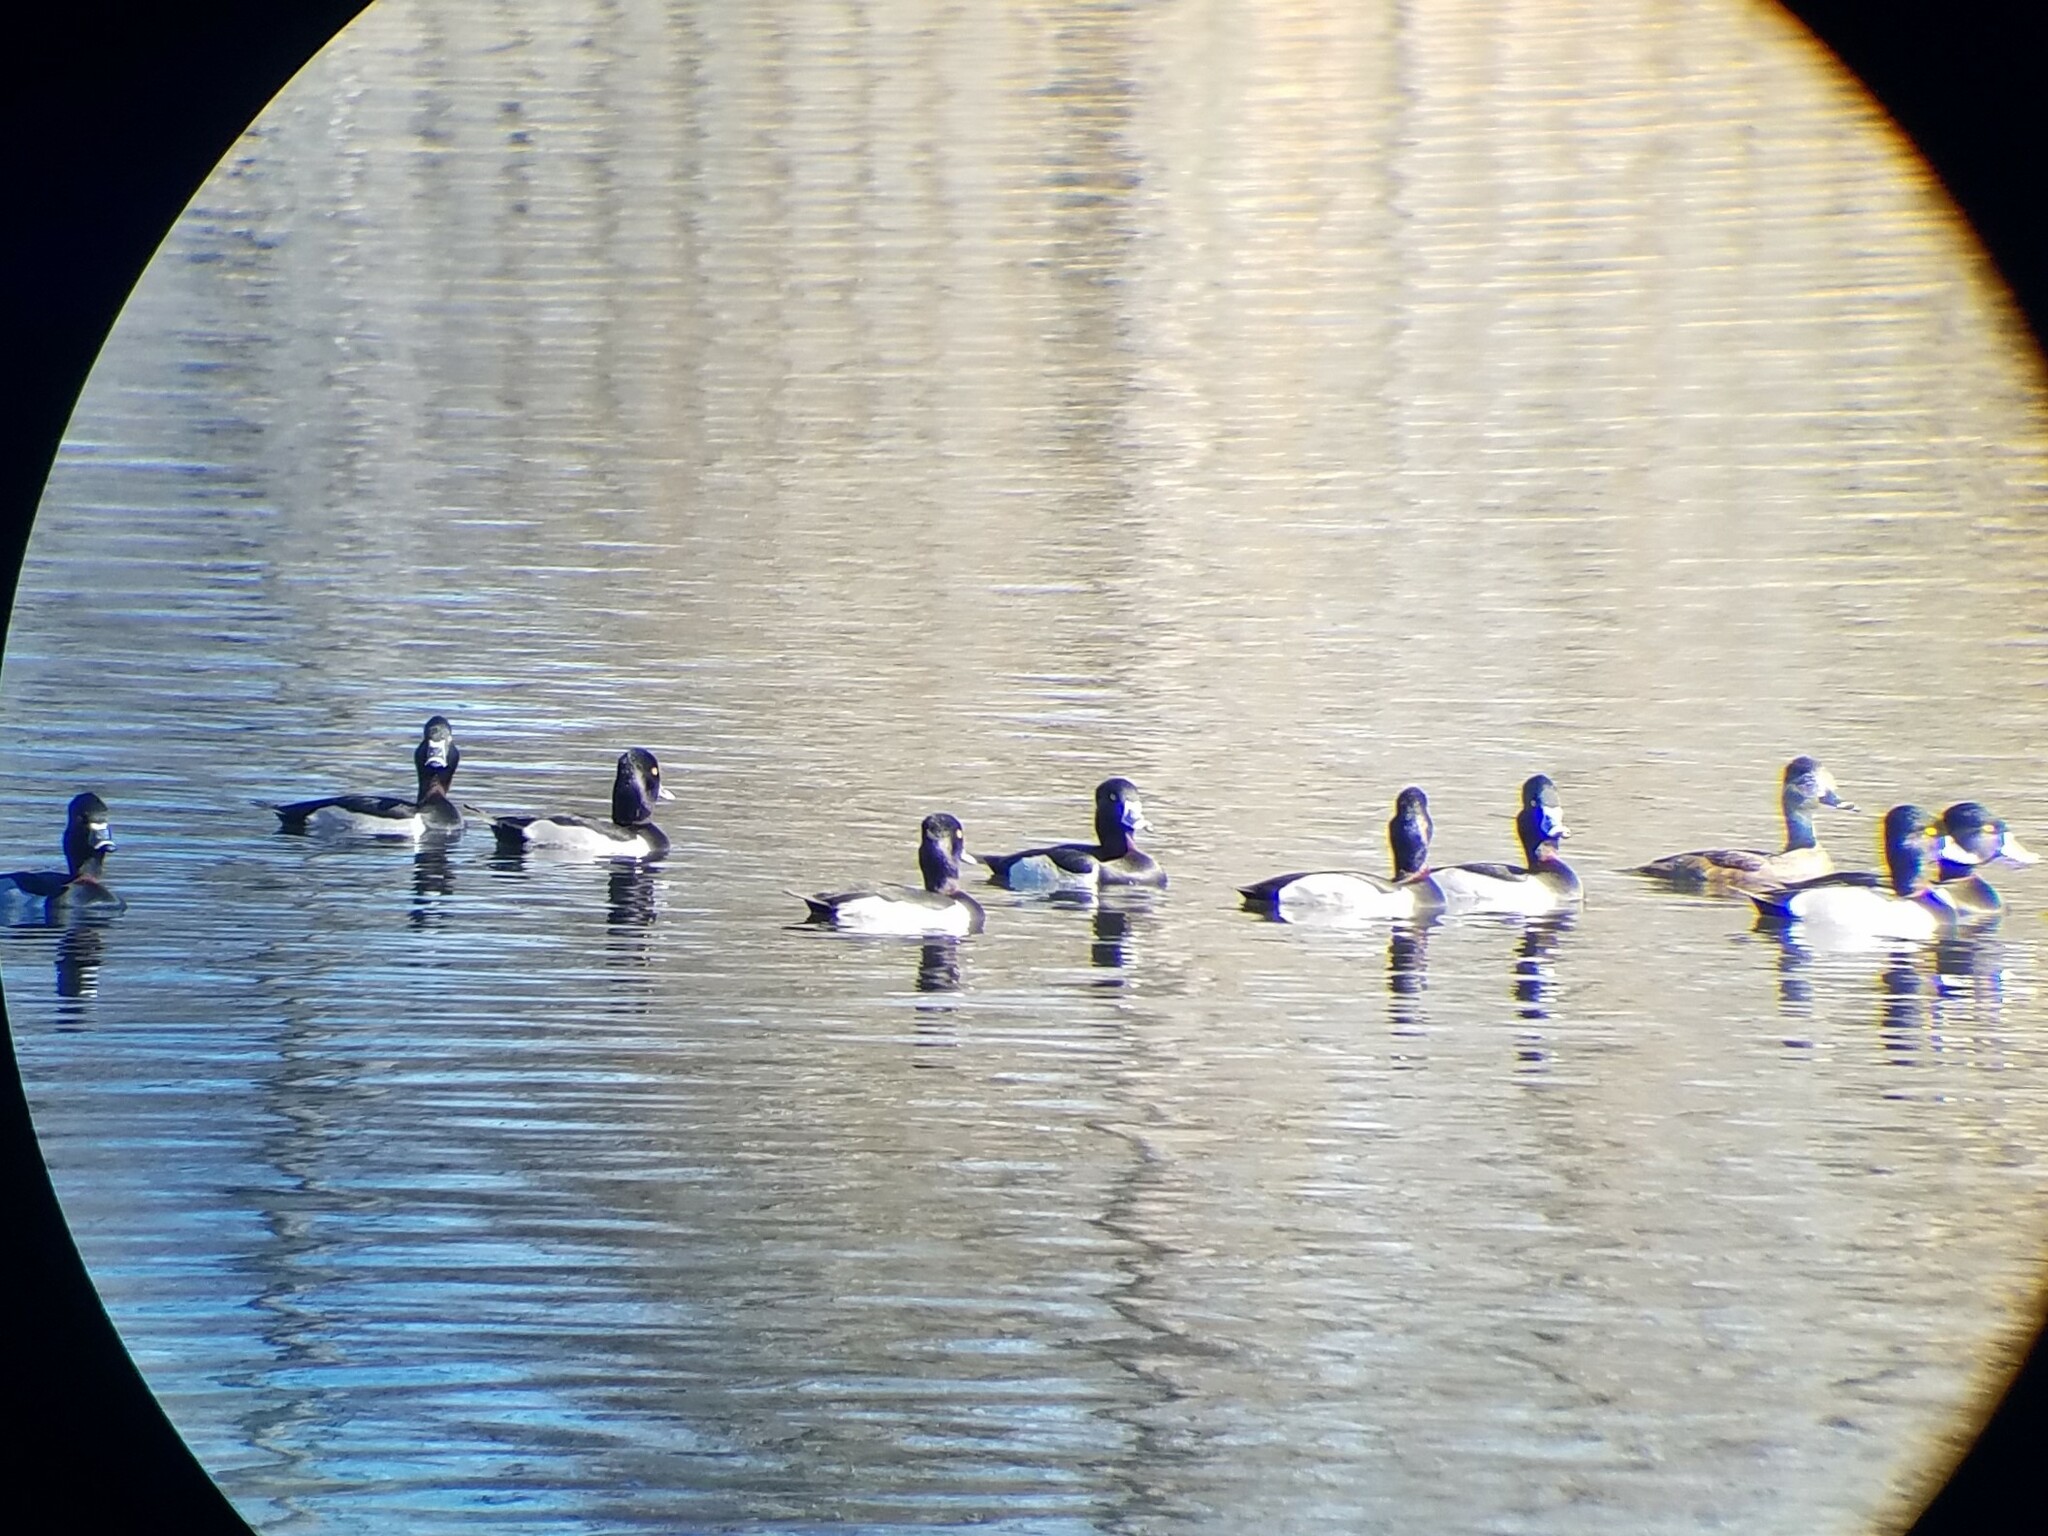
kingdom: Animalia
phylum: Chordata
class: Aves
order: Anseriformes
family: Anatidae
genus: Aythya
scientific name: Aythya collaris
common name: Ring-necked duck
